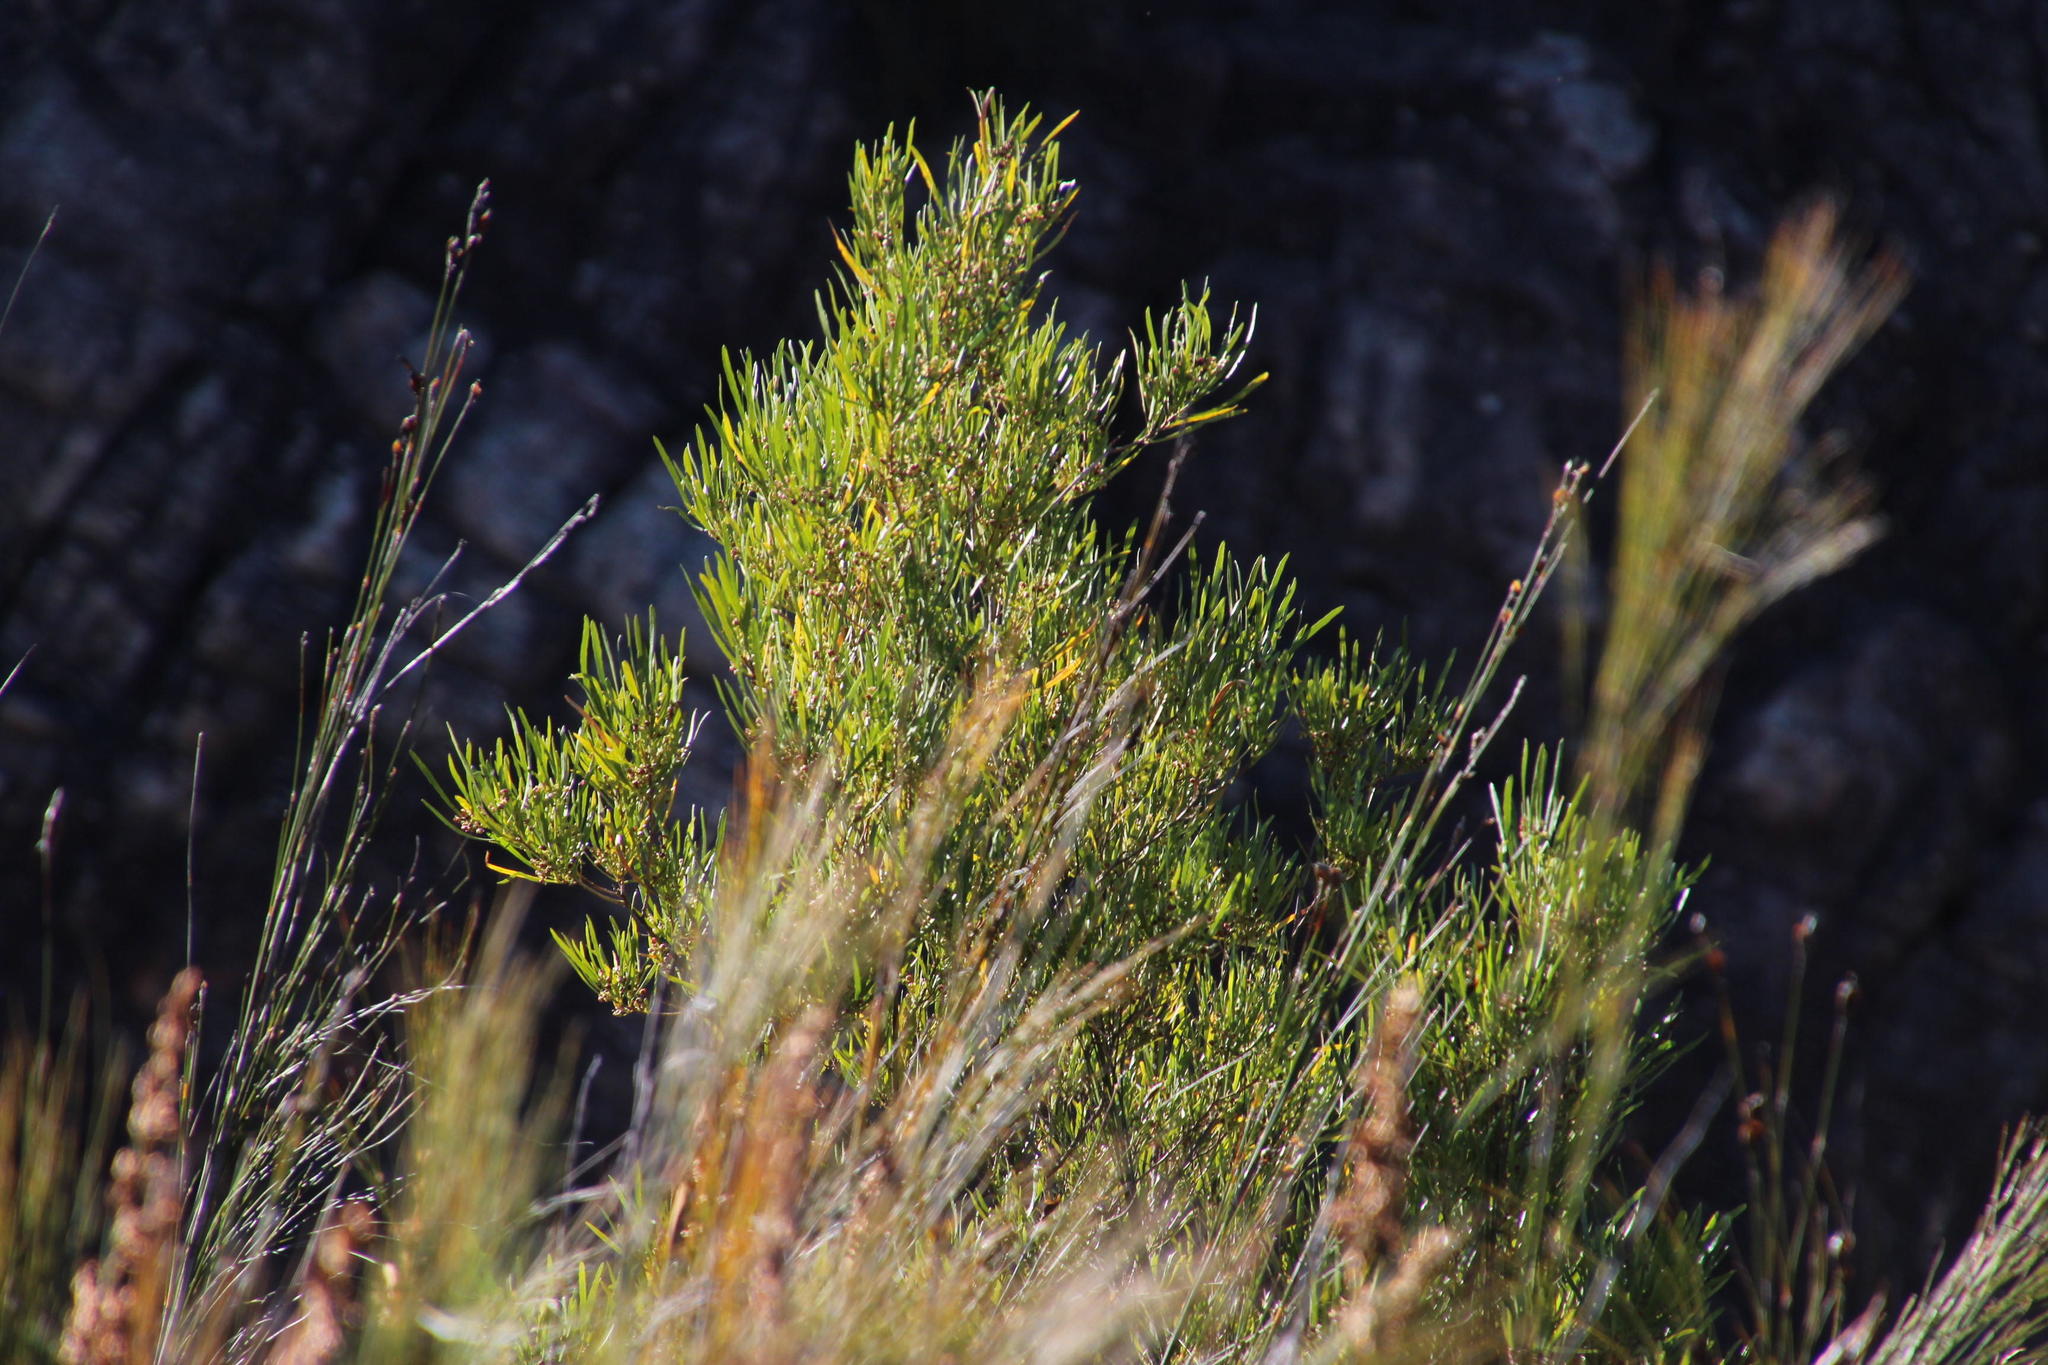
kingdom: Plantae
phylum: Tracheophyta
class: Magnoliopsida
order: Sapindales
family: Sapindaceae
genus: Dodonaea
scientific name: Dodonaea viscosa
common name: Hopbush
